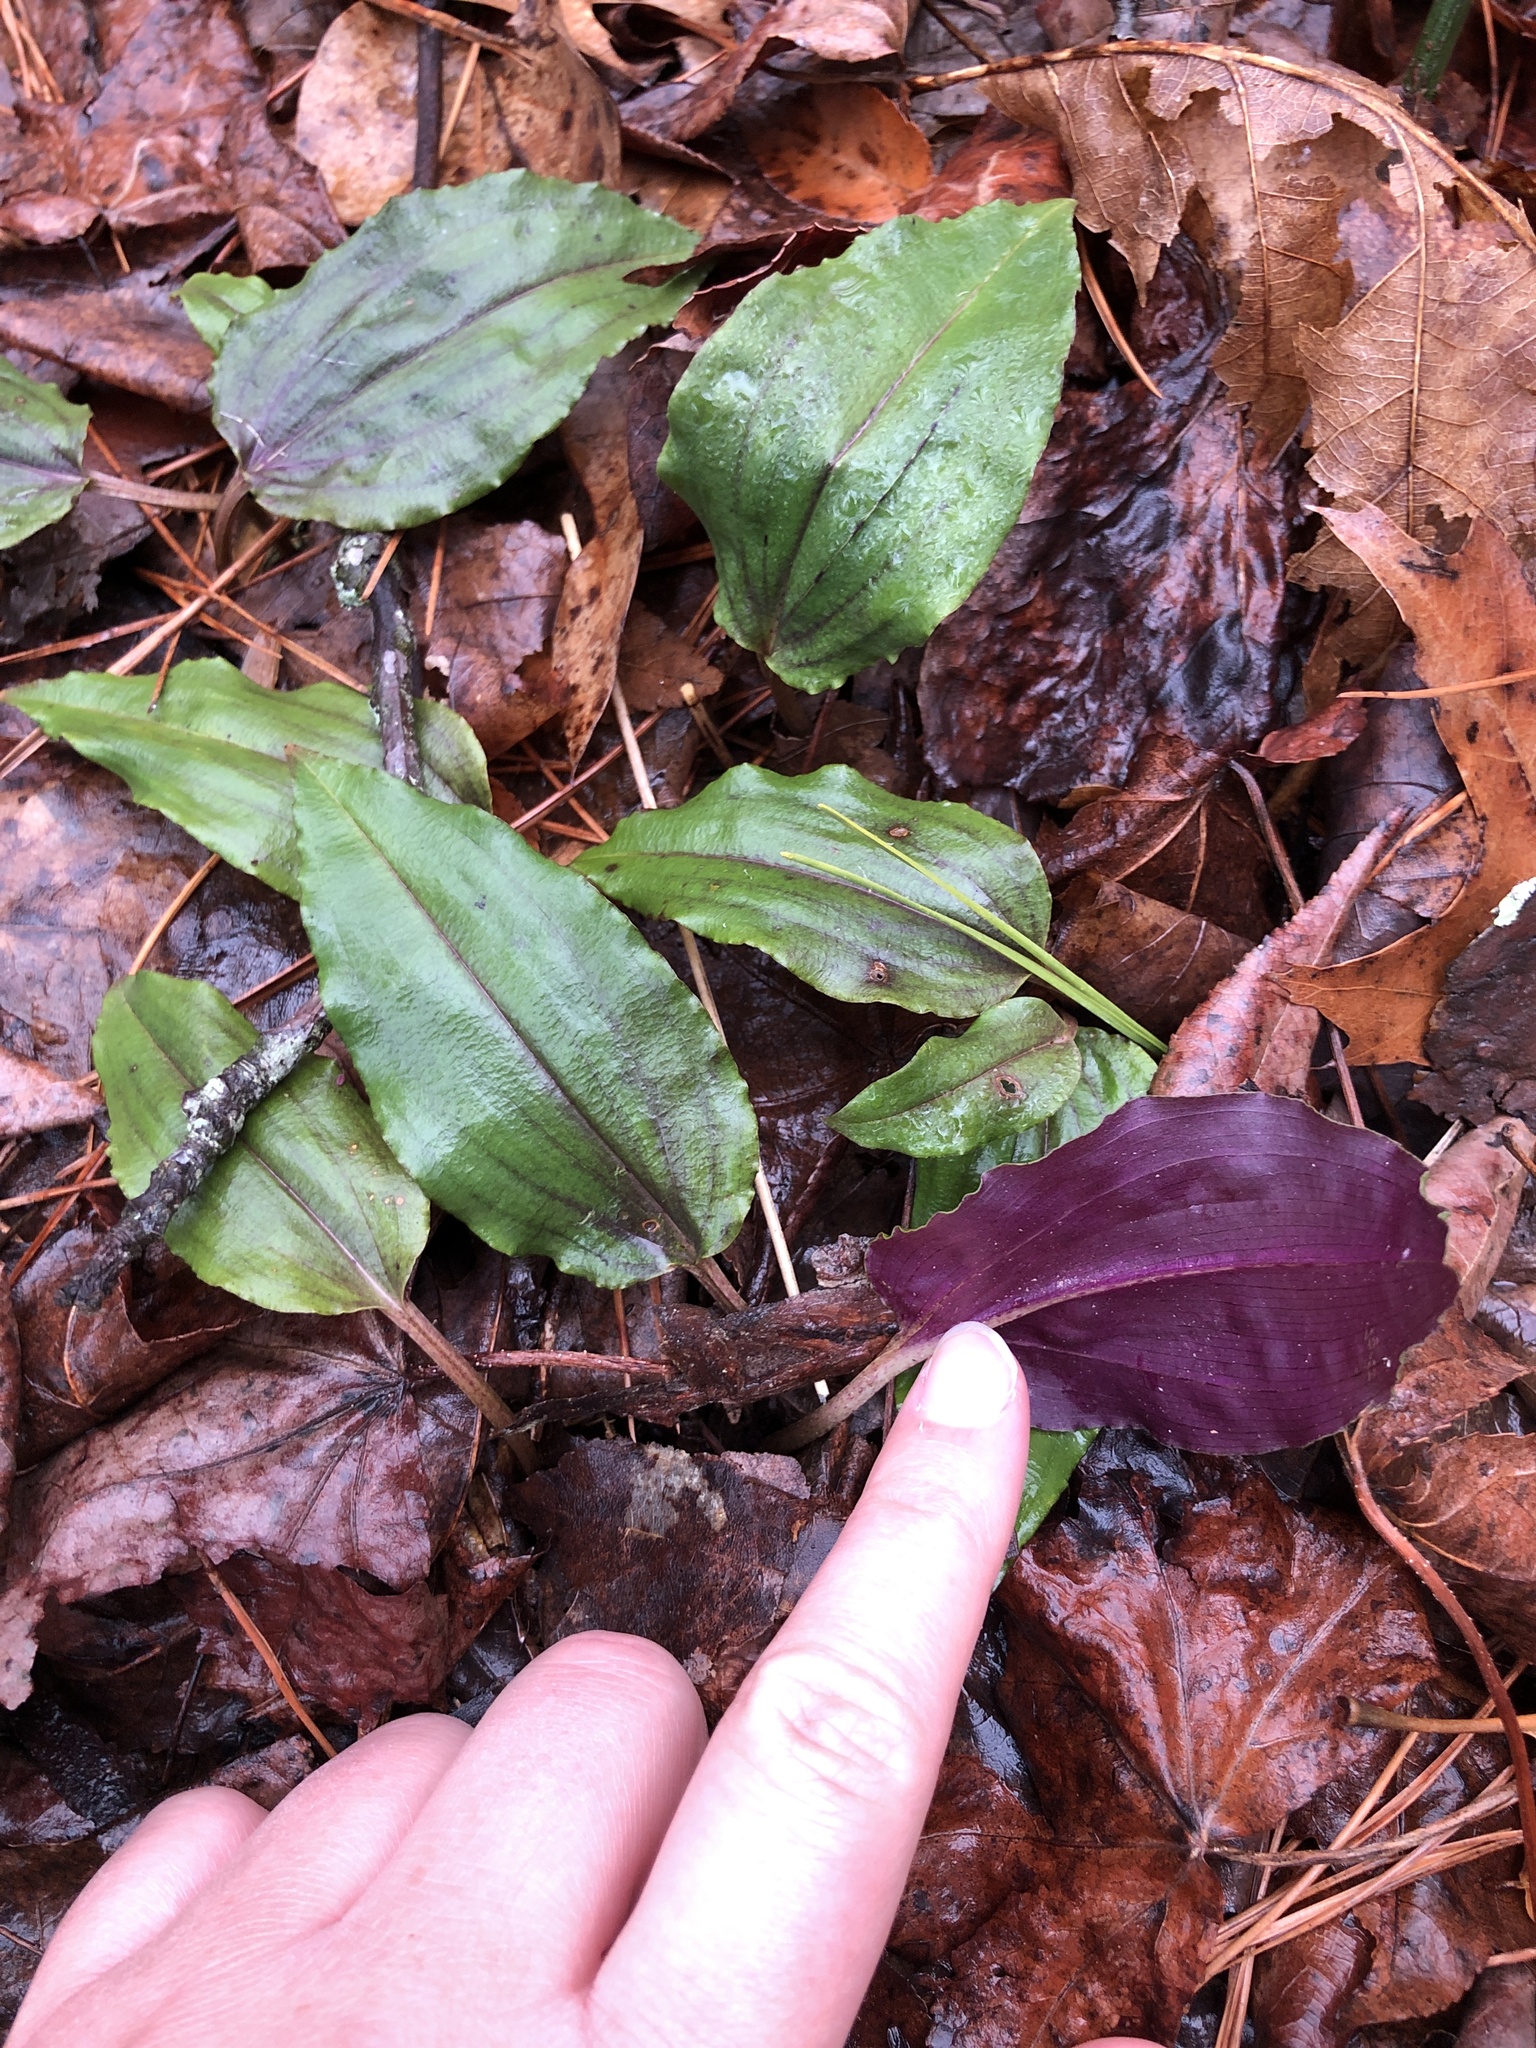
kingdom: Plantae
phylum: Tracheophyta
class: Liliopsida
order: Asparagales
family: Orchidaceae
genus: Tipularia
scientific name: Tipularia discolor
